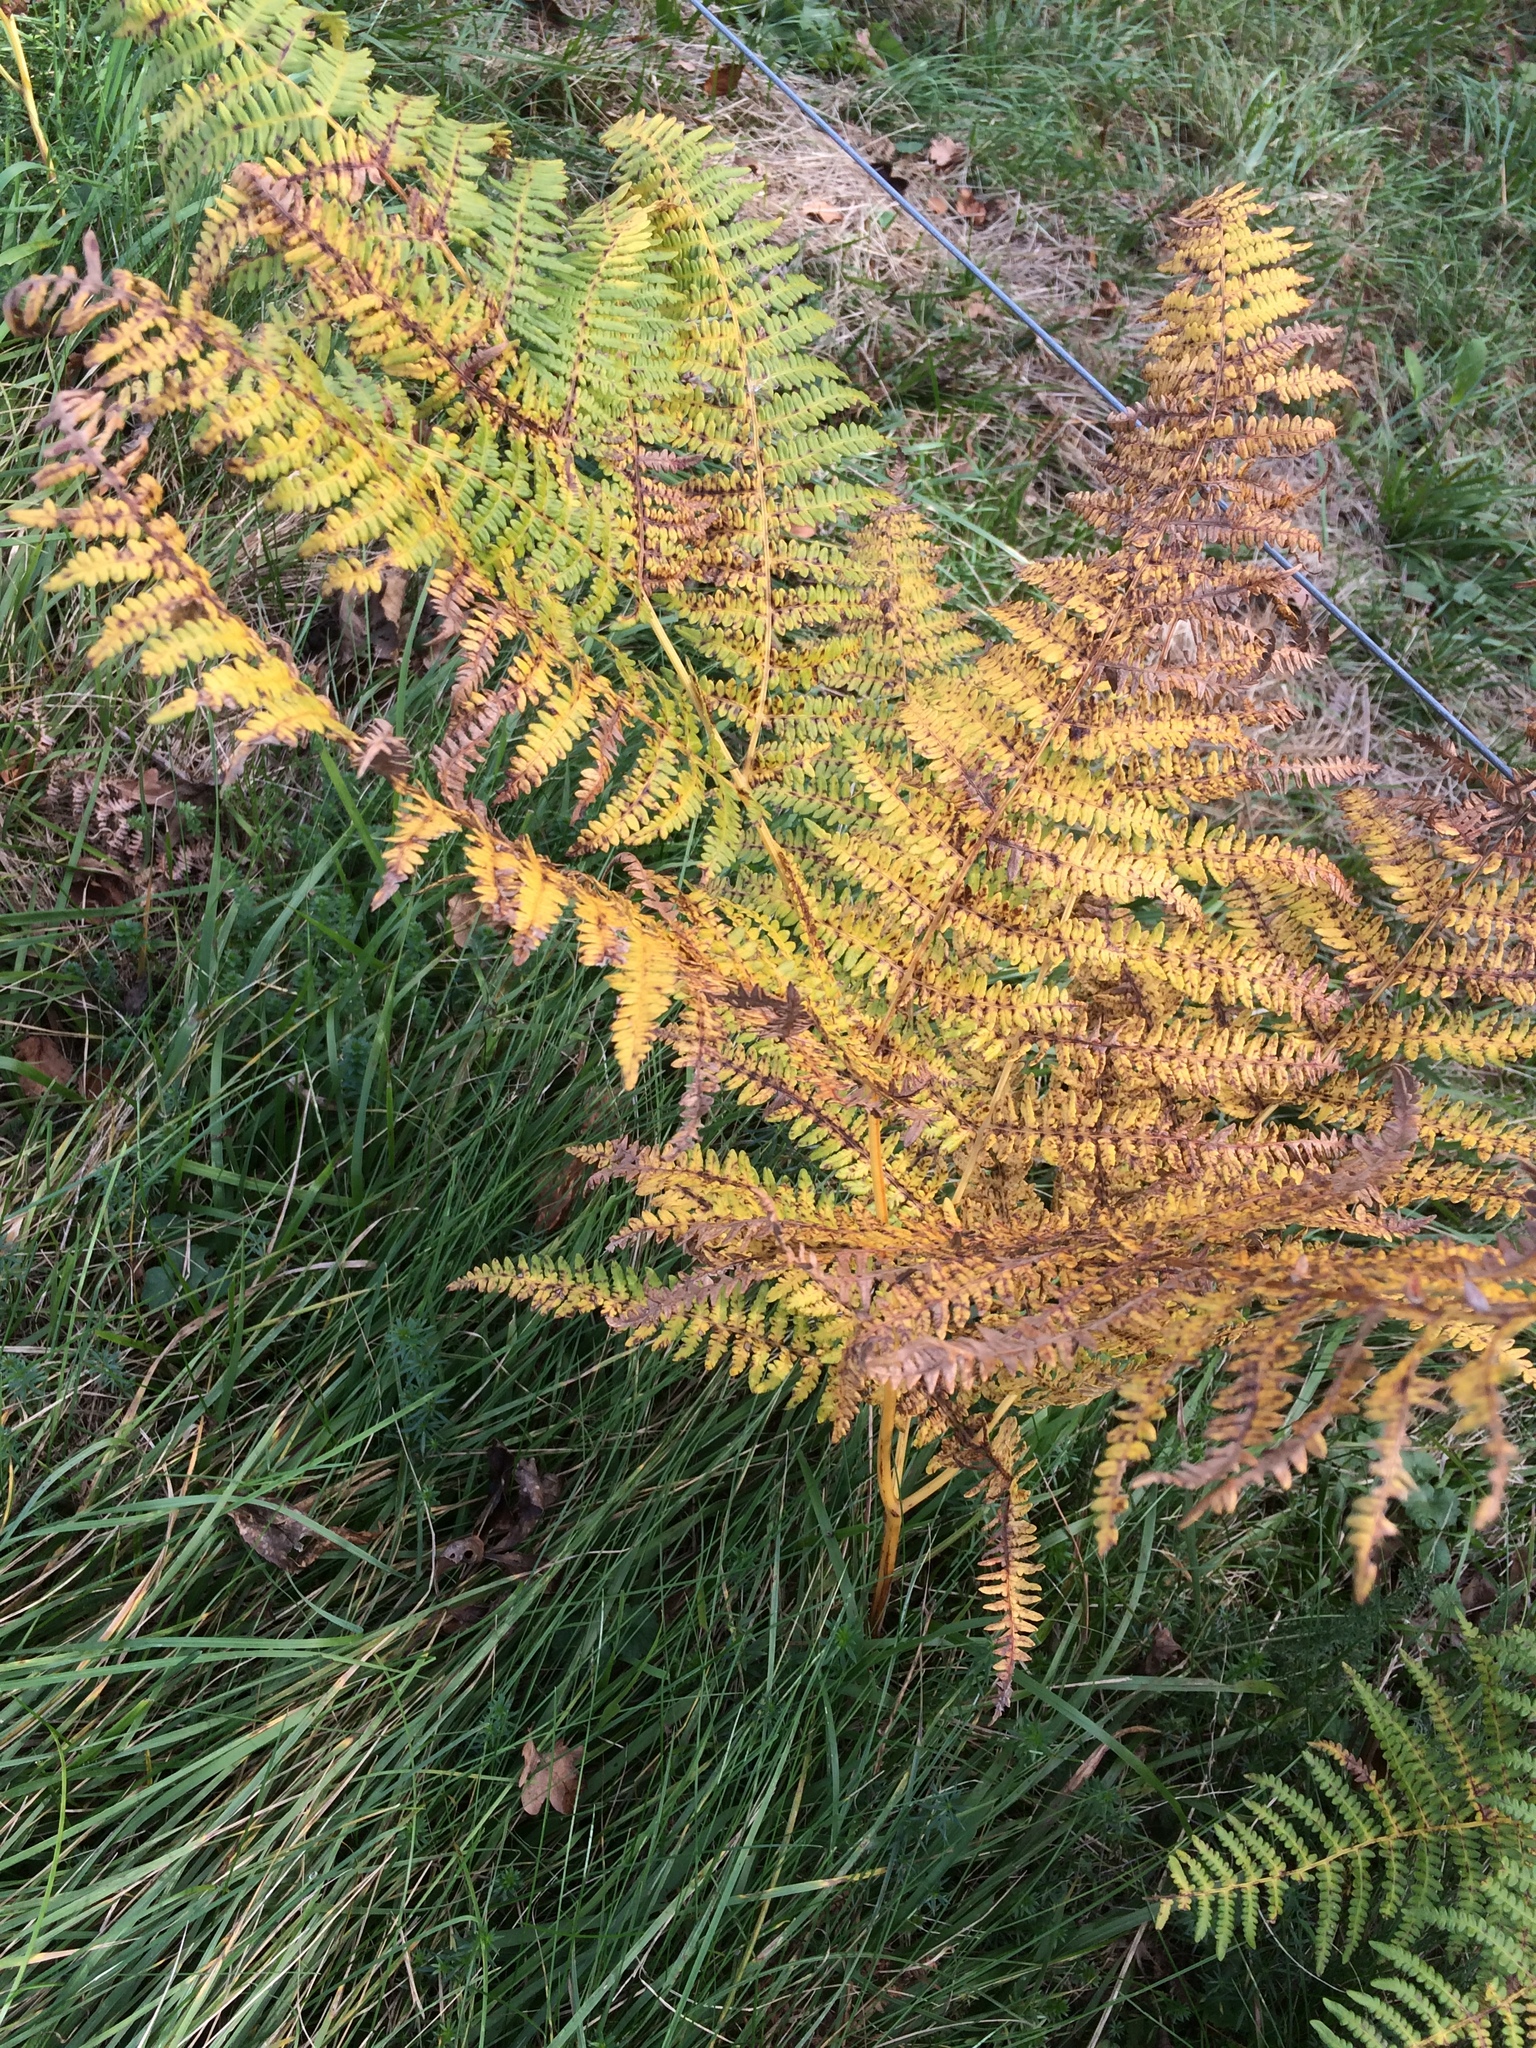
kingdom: Plantae
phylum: Tracheophyta
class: Polypodiopsida
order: Polypodiales
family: Dennstaedtiaceae
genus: Pteridium
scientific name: Pteridium aquilinum
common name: Bracken
